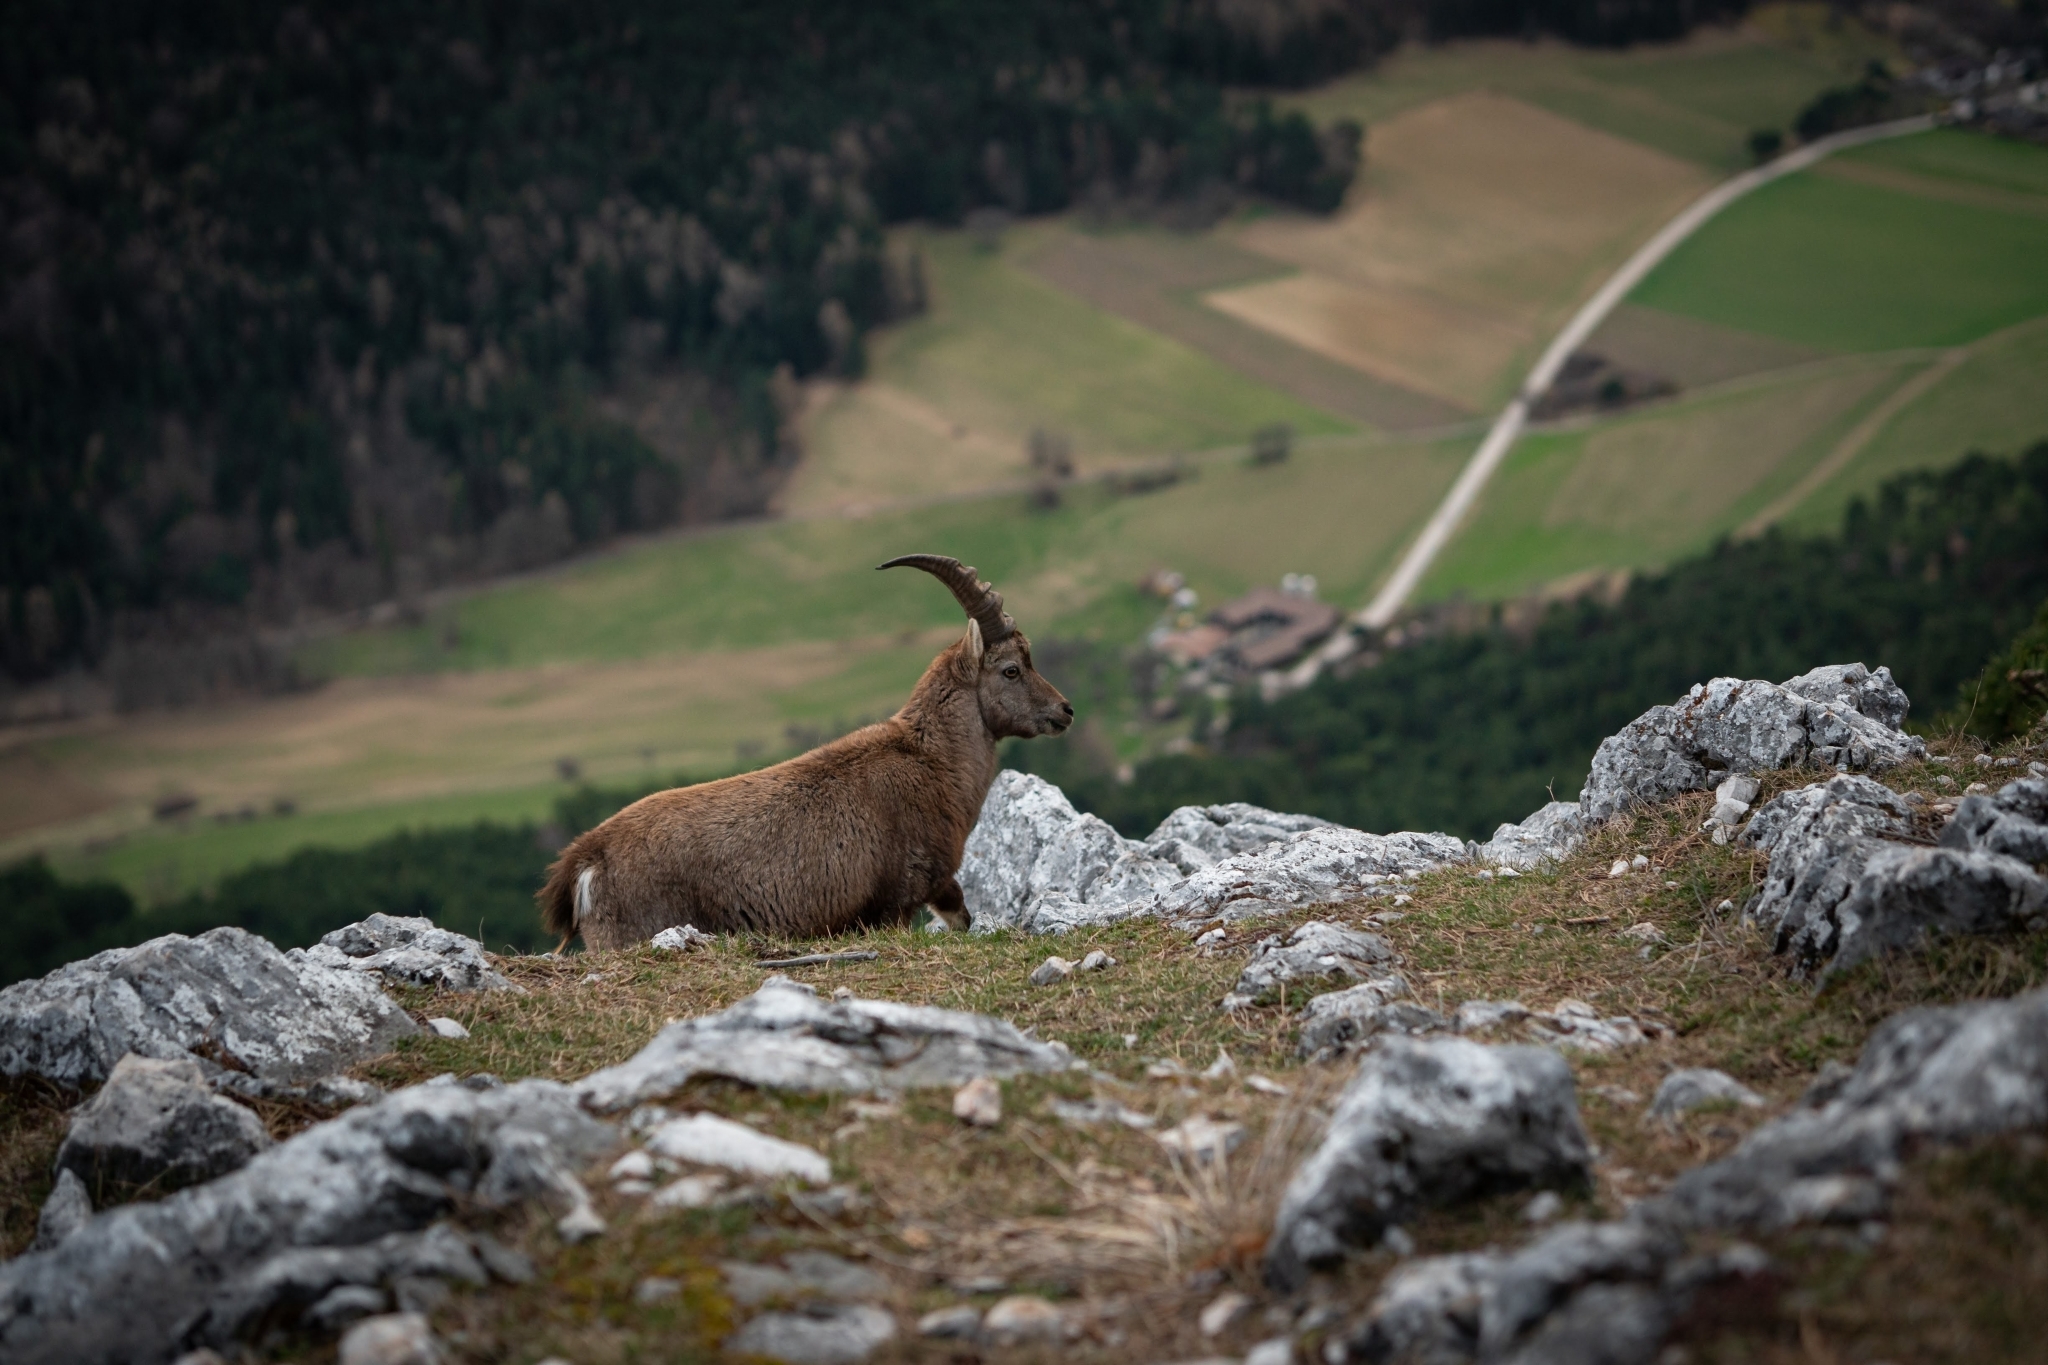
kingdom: Animalia
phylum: Chordata
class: Mammalia
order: Artiodactyla
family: Bovidae
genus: Capra
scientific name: Capra ibex
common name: Alpine ibex
